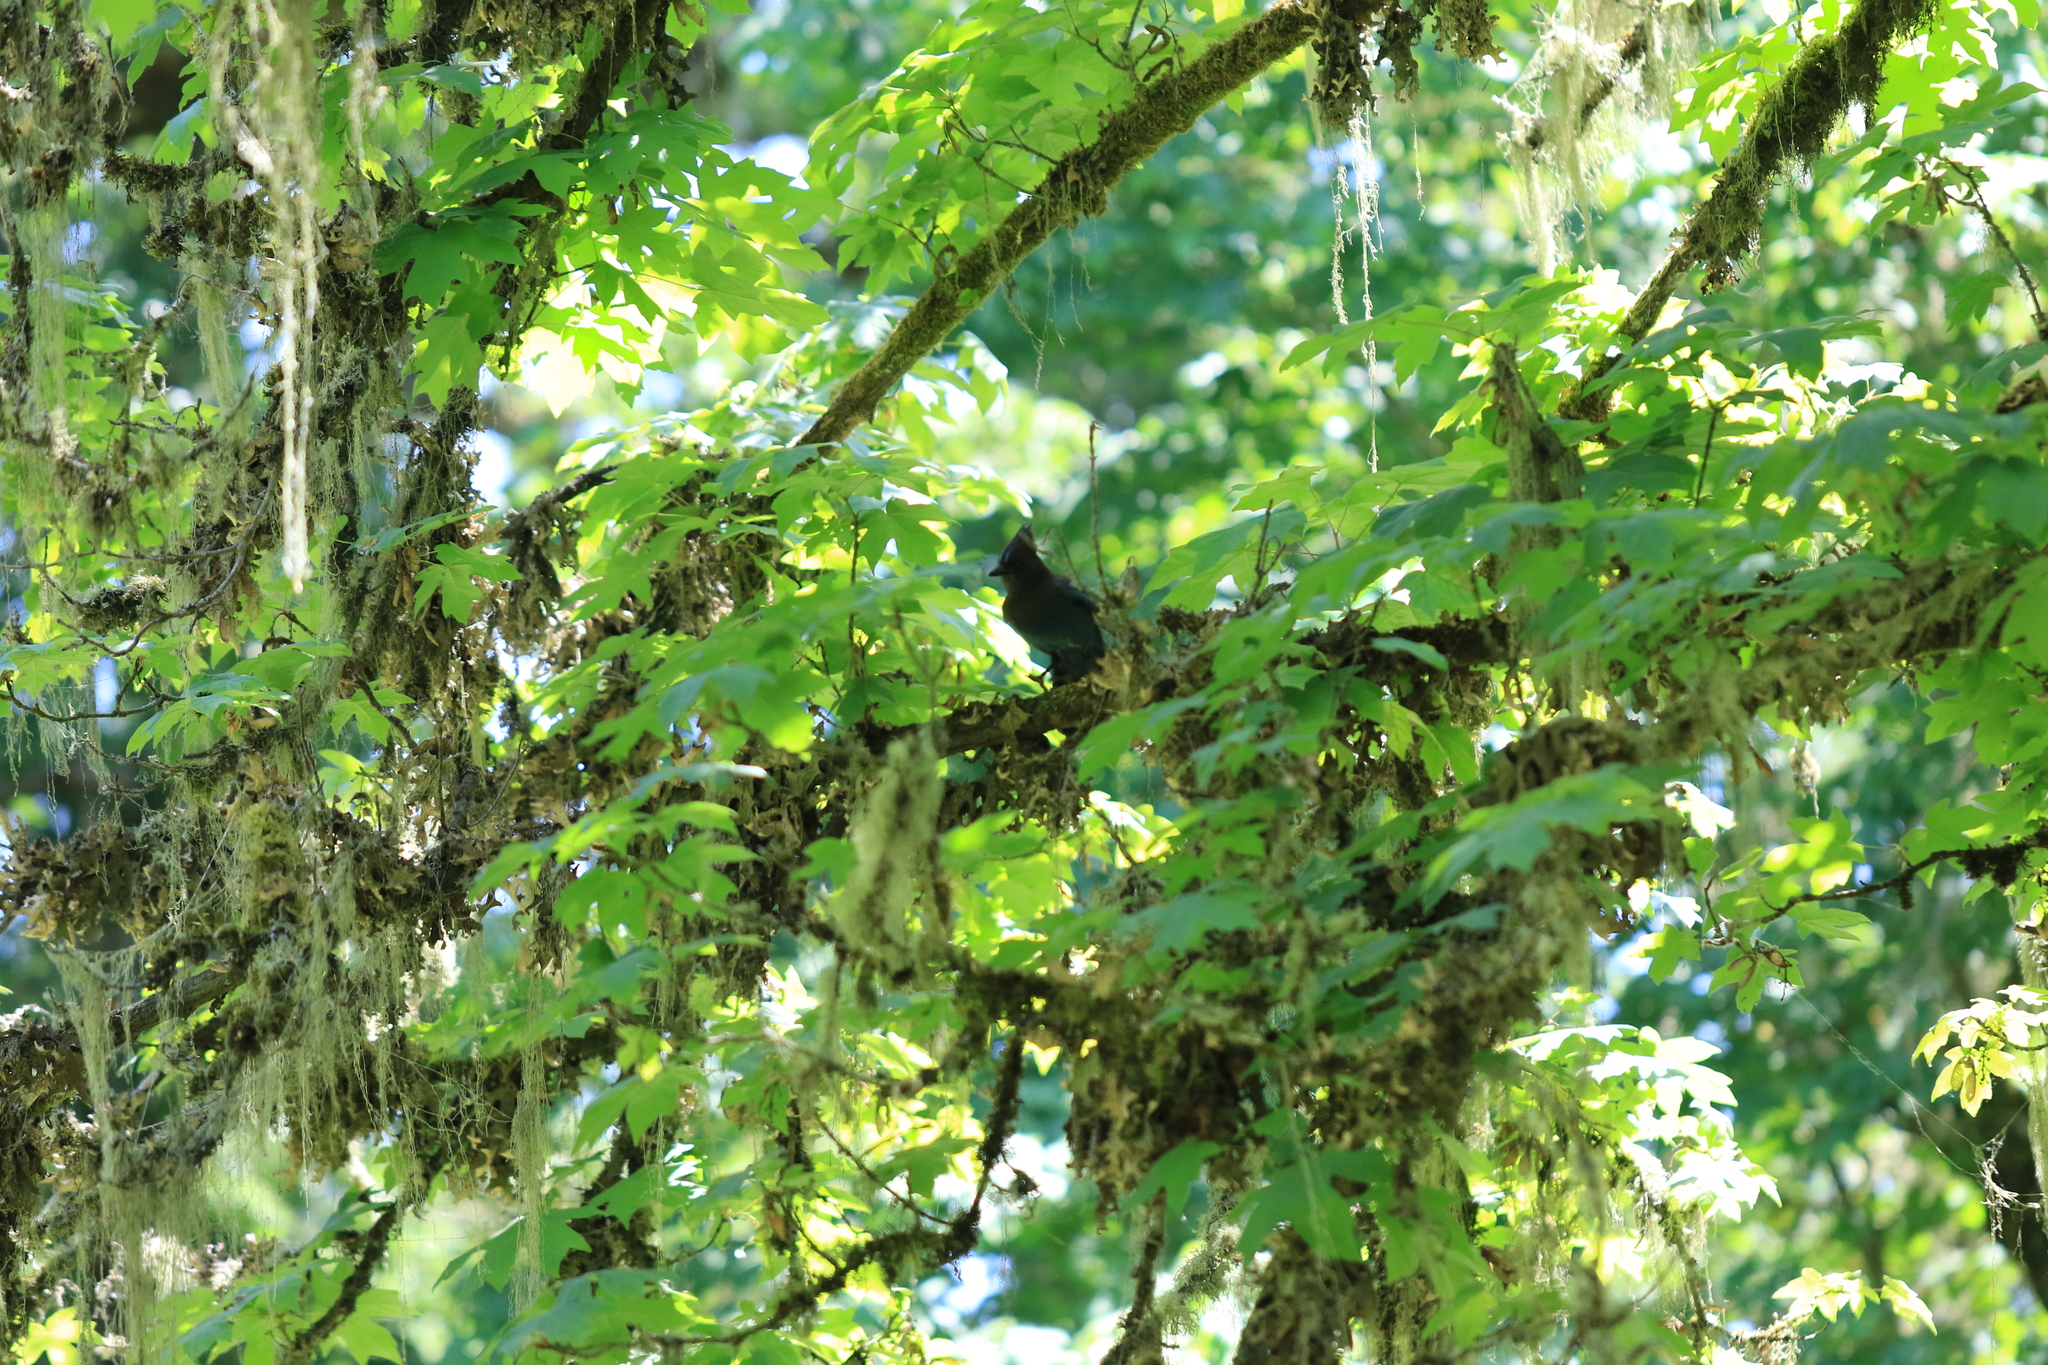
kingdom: Animalia
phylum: Chordata
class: Aves
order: Passeriformes
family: Corvidae
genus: Cyanocitta
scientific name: Cyanocitta stelleri
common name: Steller's jay
